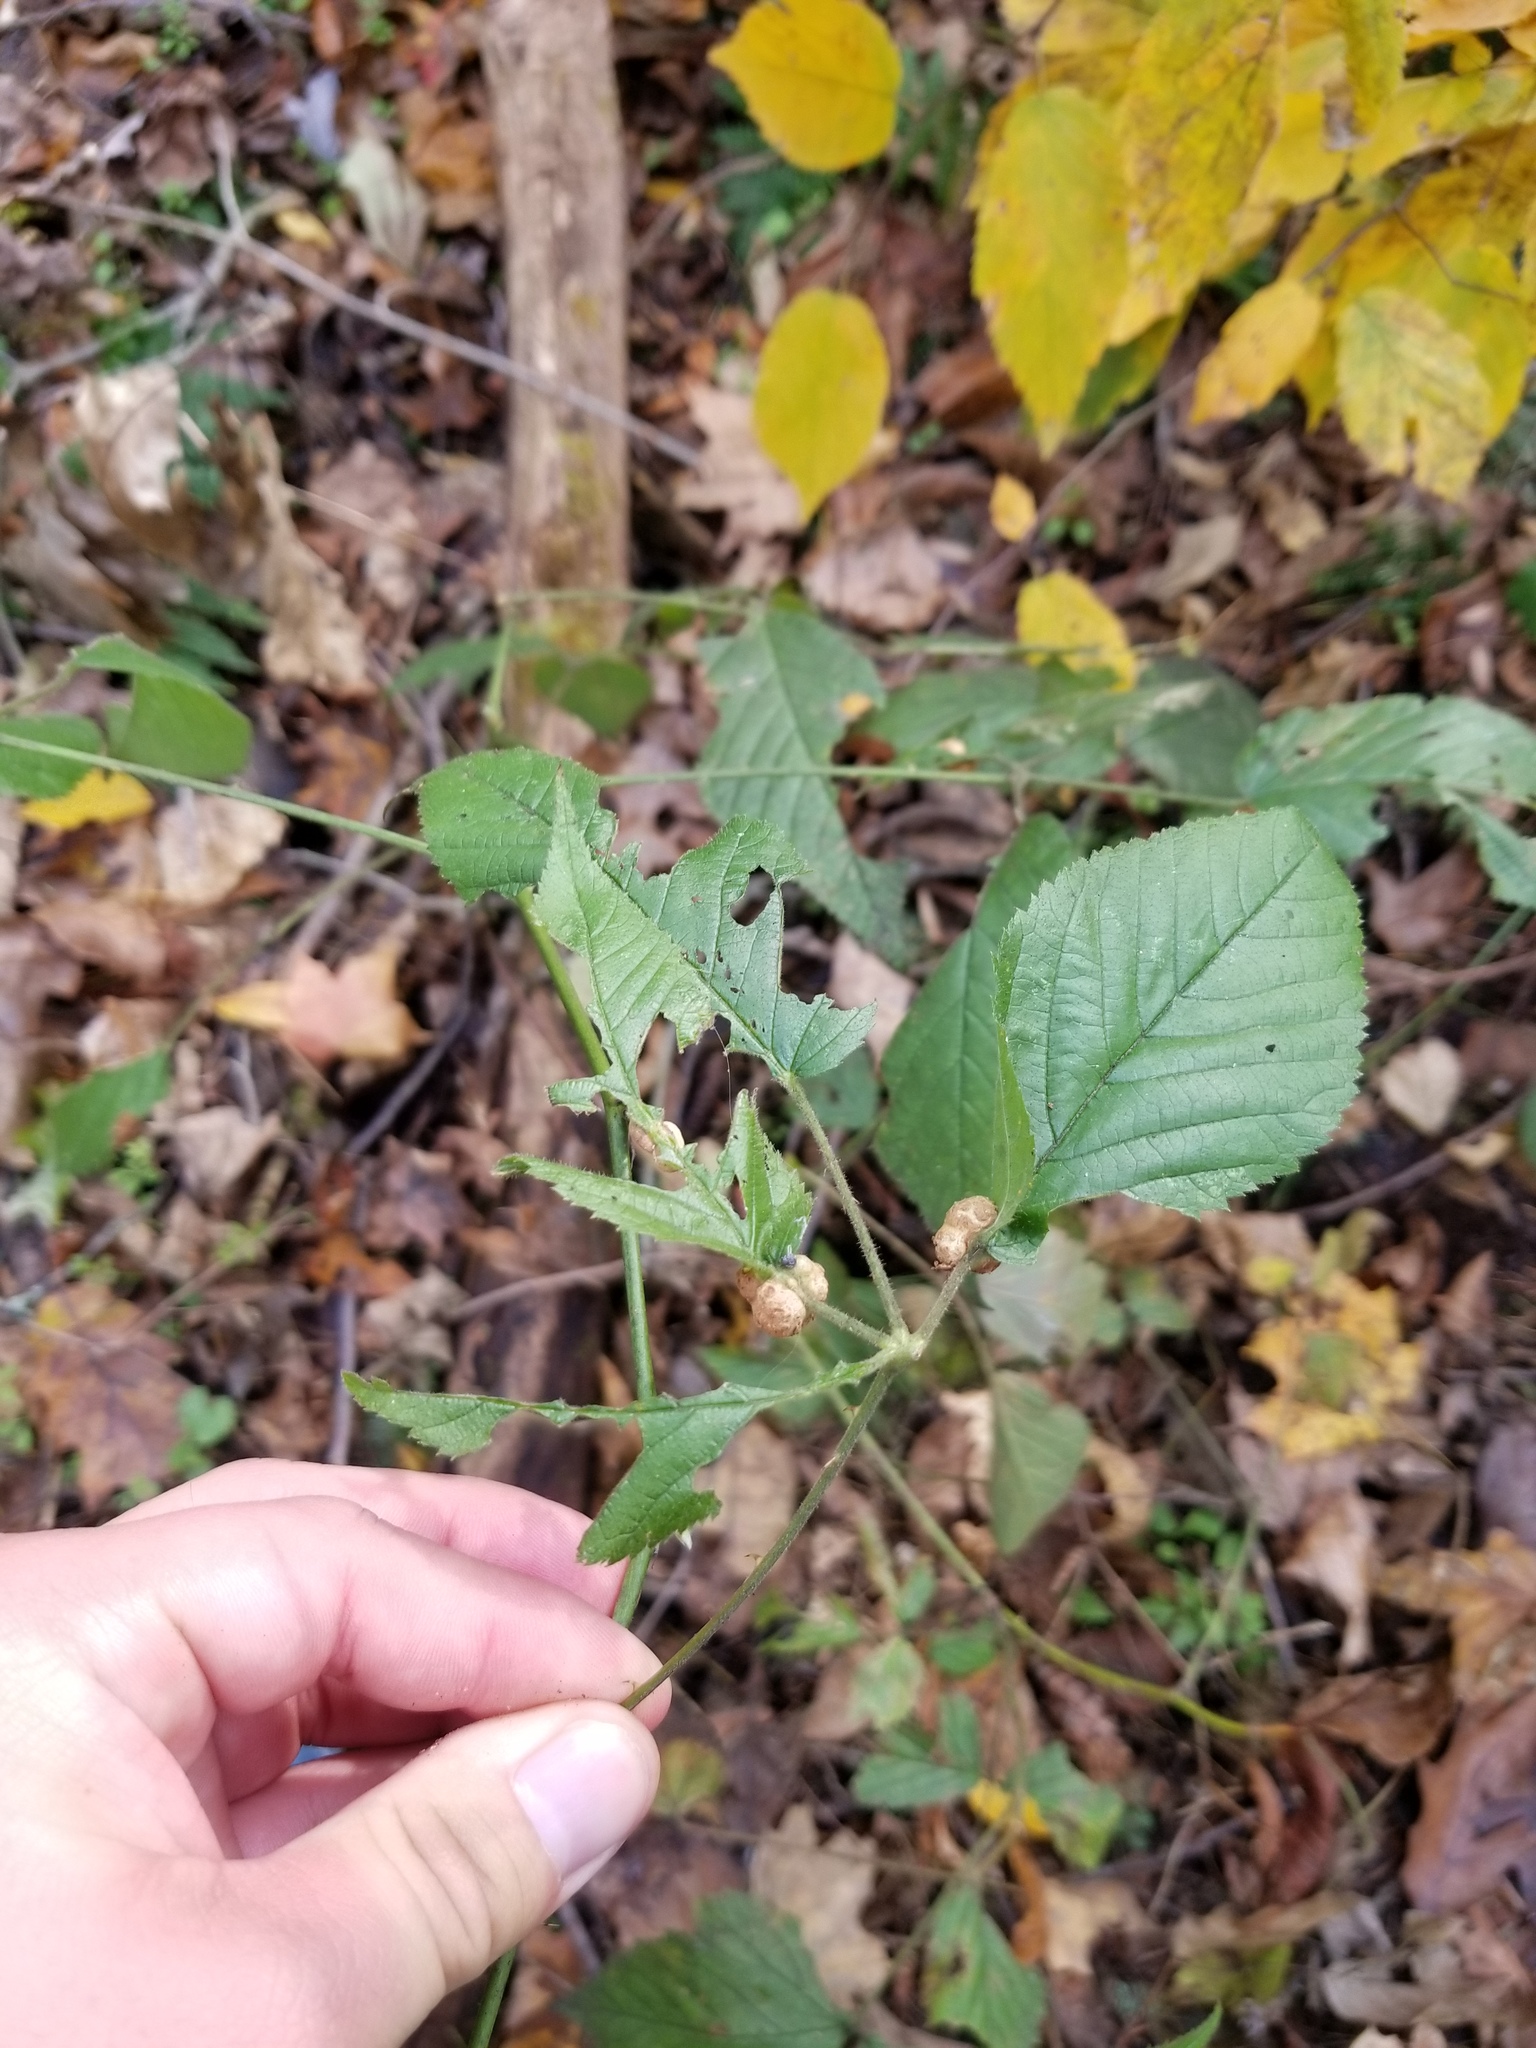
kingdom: Animalia
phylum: Arthropoda
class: Insecta
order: Diptera
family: Cecidomyiidae
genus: Neolasioptera
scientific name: Neolasioptera farinosa
